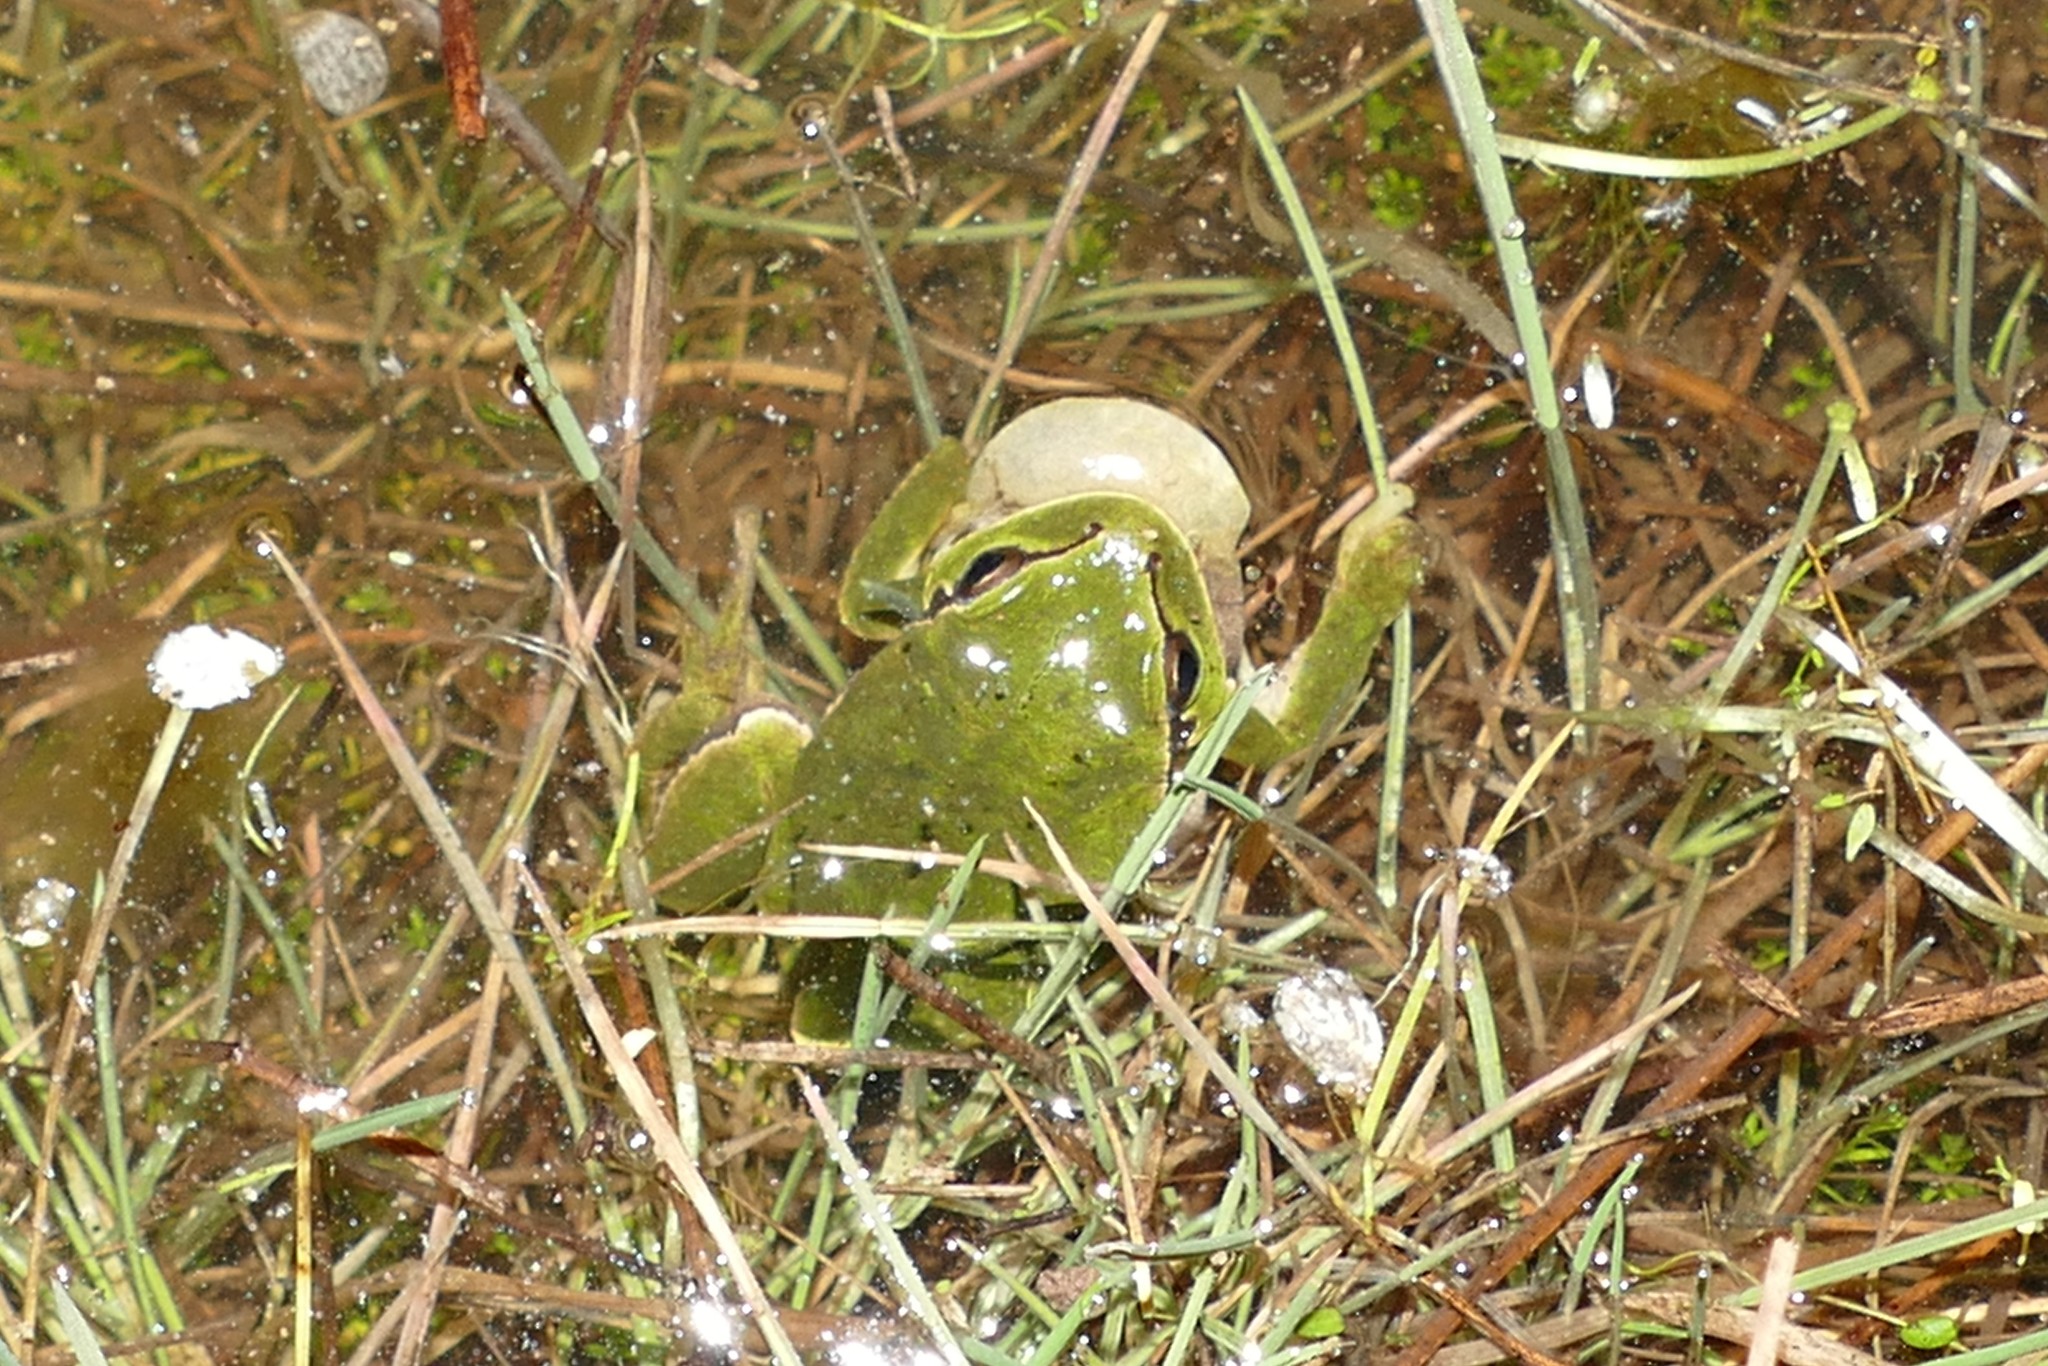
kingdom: Animalia
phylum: Chordata
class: Amphibia
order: Anura
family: Hylidae
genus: Hyla
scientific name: Hyla molleri
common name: Iberian tree frog
